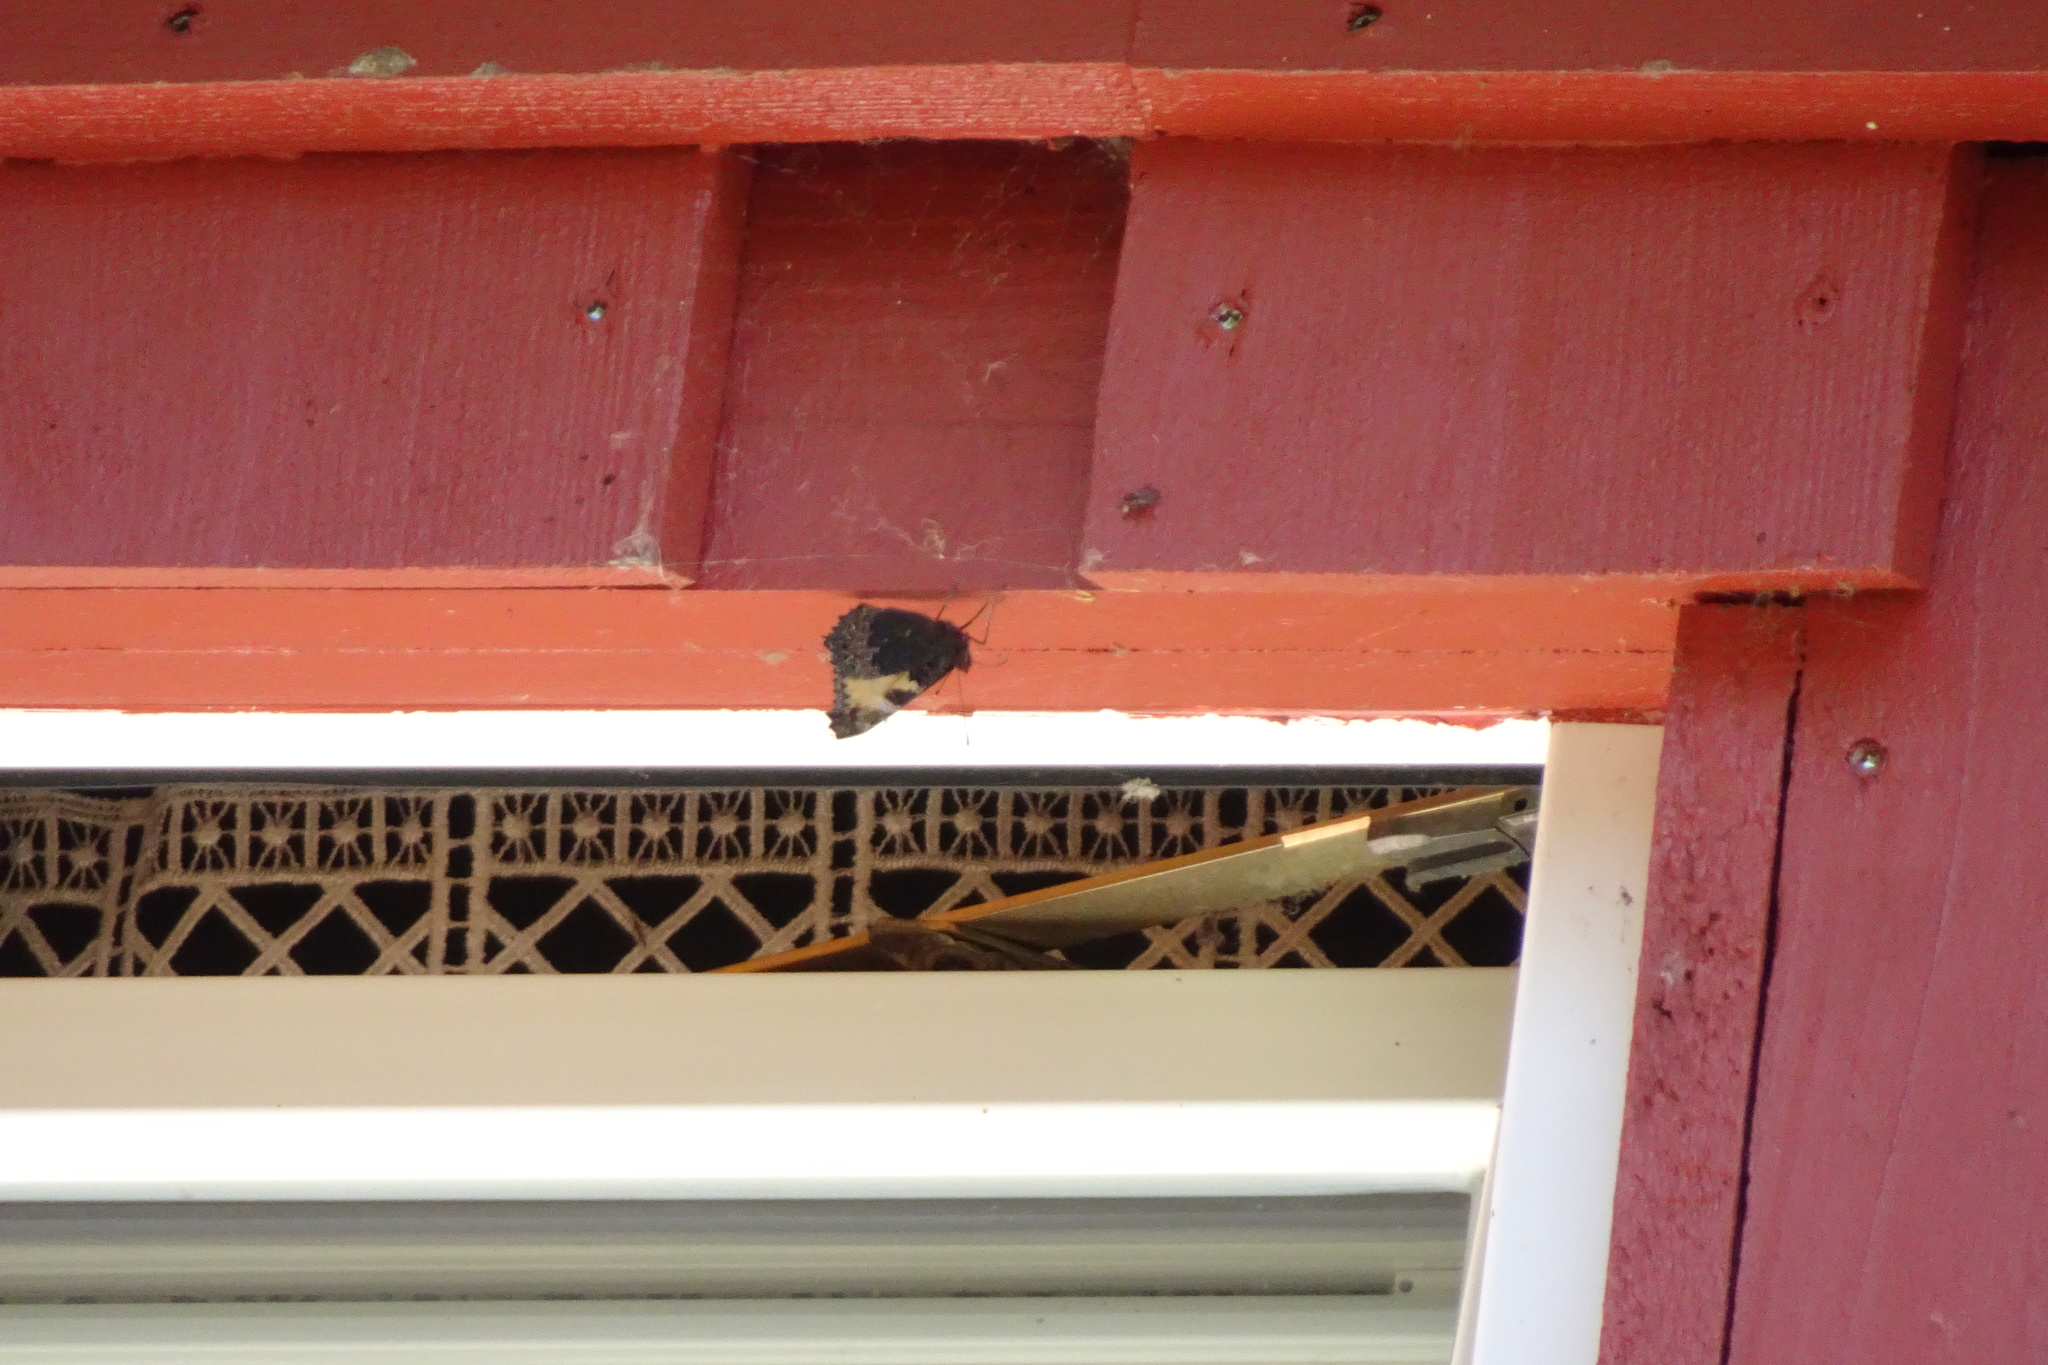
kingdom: Animalia
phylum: Arthropoda
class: Insecta
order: Lepidoptera
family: Nymphalidae
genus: Aglais
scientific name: Aglais urticae
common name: Small tortoiseshell
